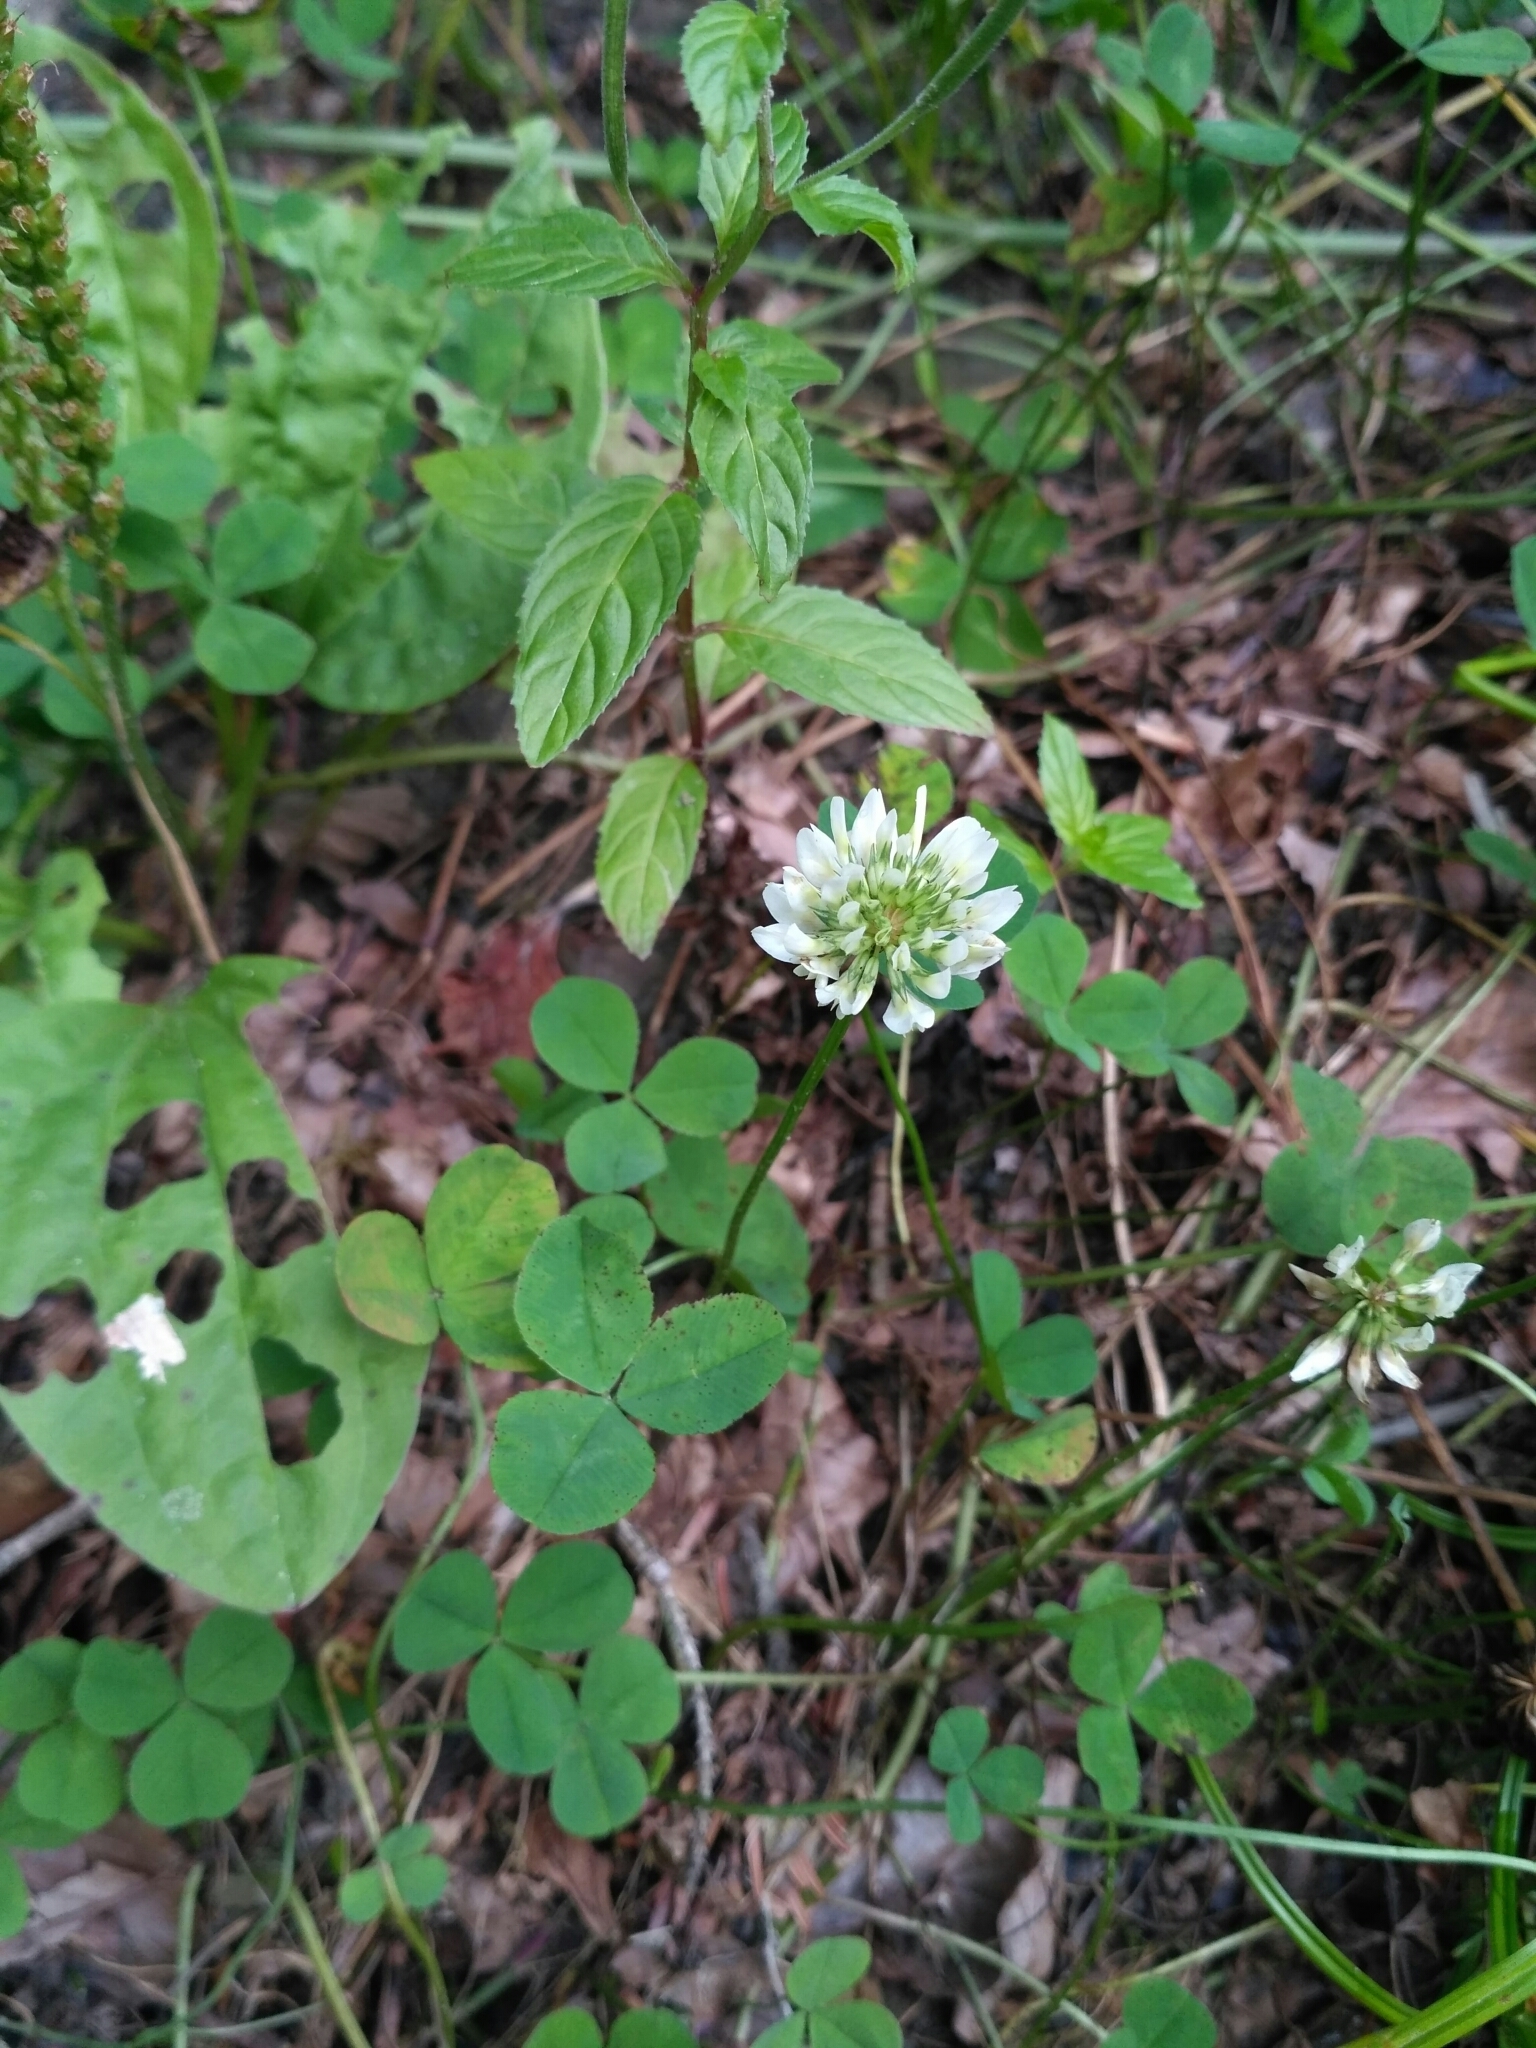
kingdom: Plantae
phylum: Tracheophyta
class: Magnoliopsida
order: Fabales
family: Fabaceae
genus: Trifolium
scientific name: Trifolium repens
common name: White clover
